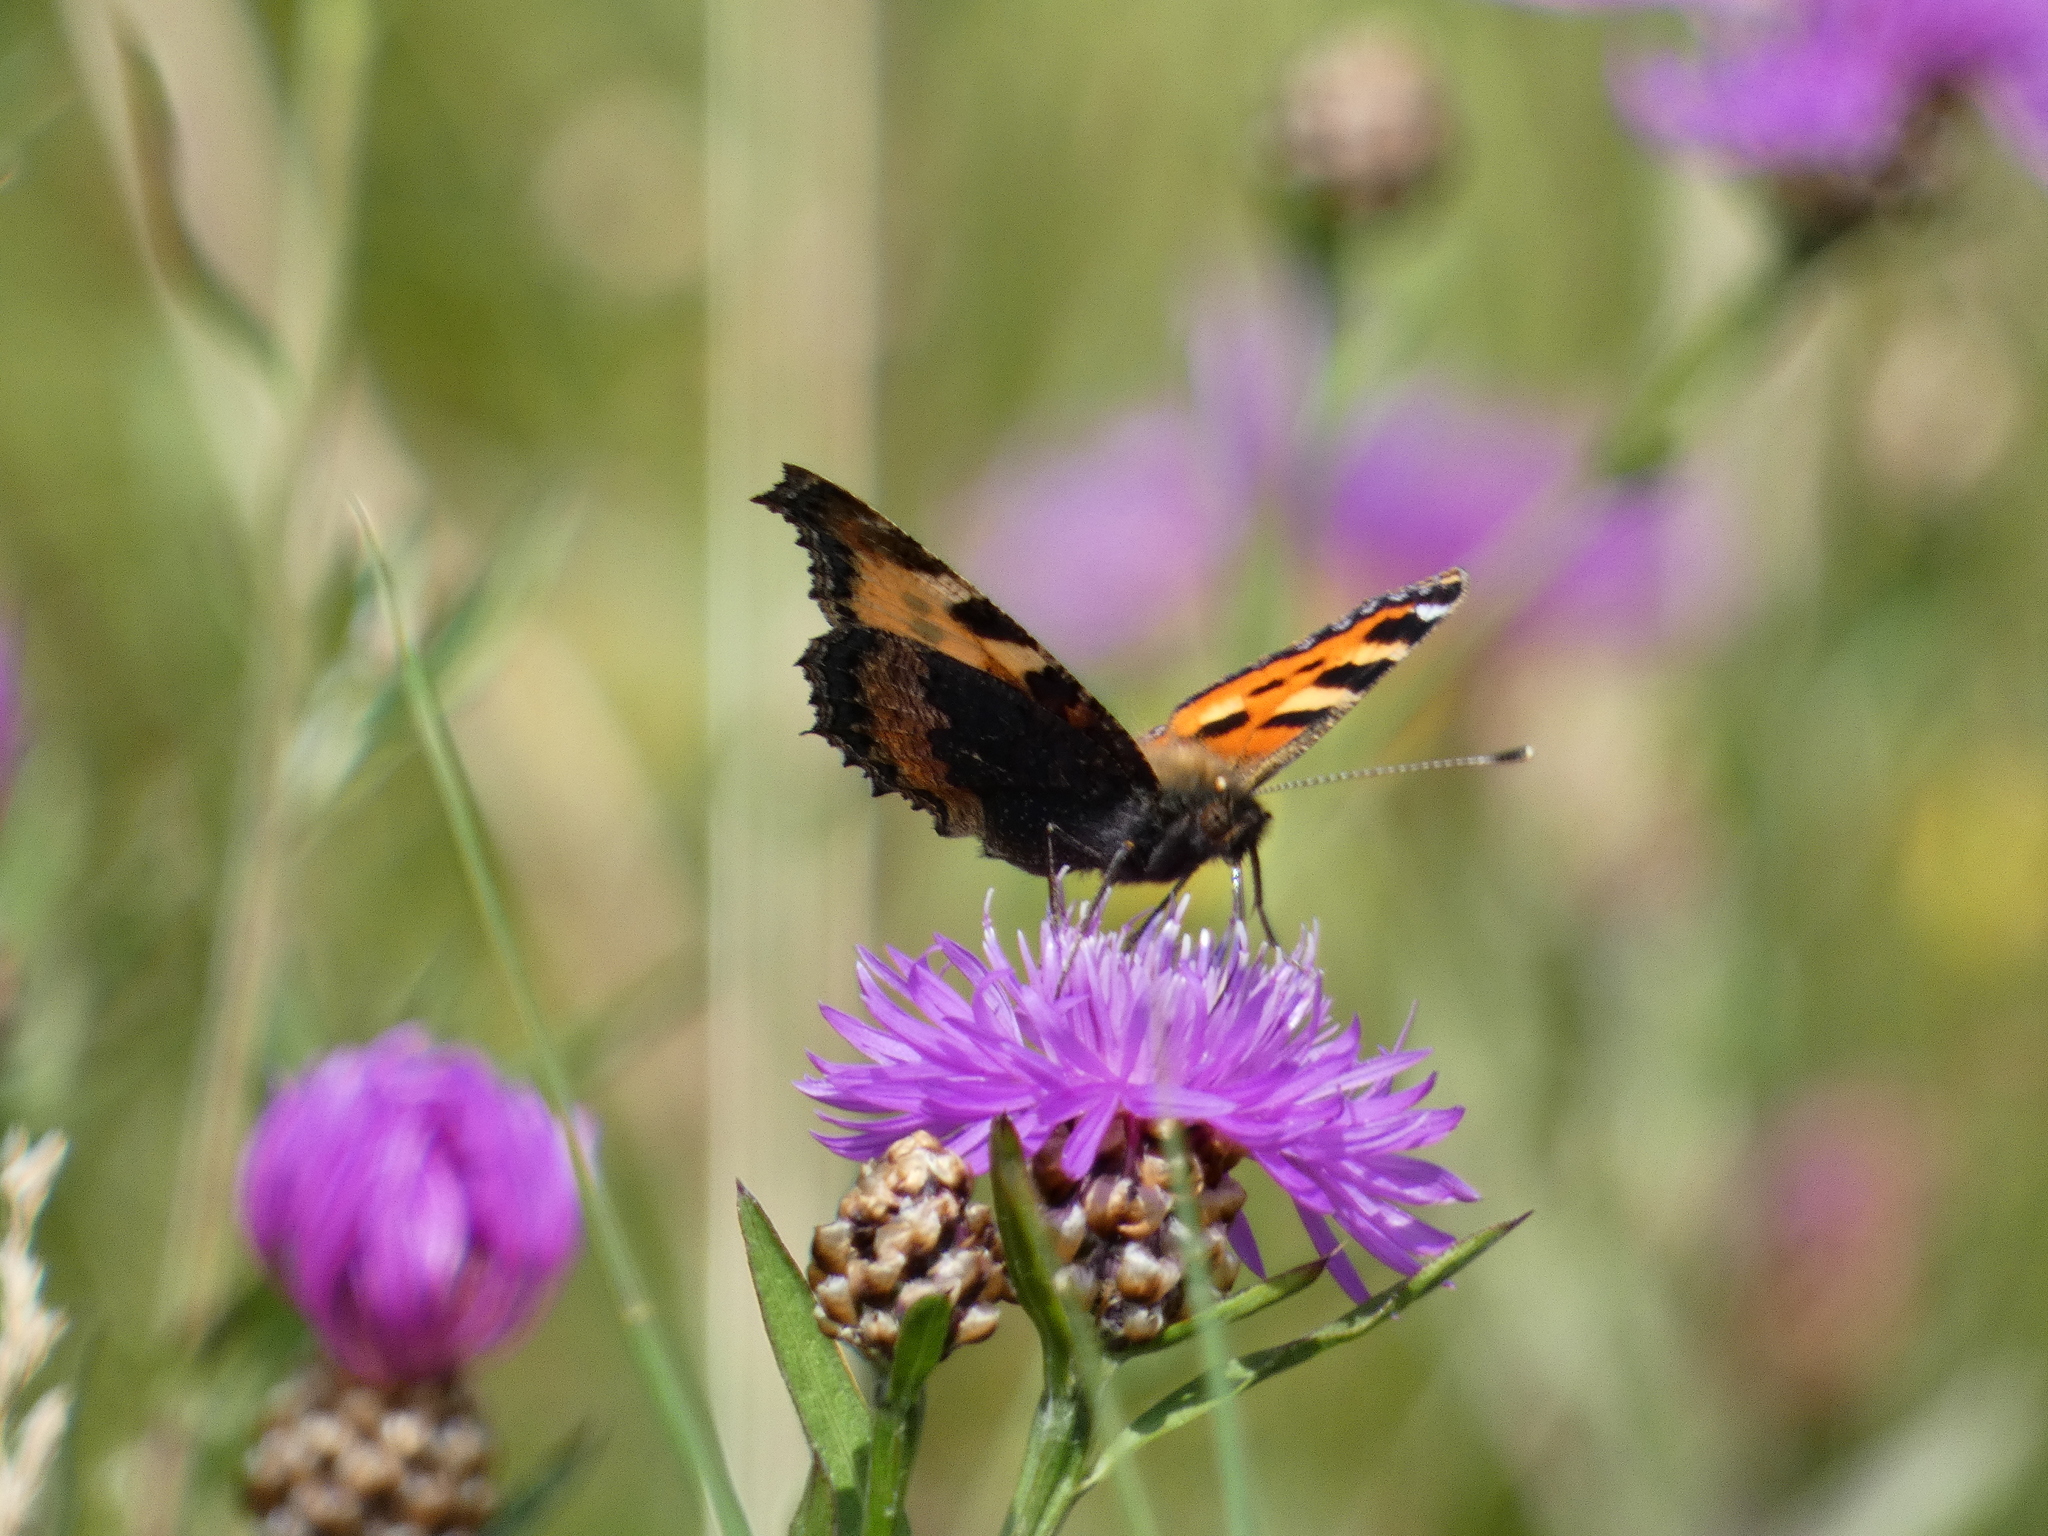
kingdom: Animalia
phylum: Arthropoda
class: Insecta
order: Lepidoptera
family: Nymphalidae
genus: Aglais
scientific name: Aglais urticae
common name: Small tortoiseshell
